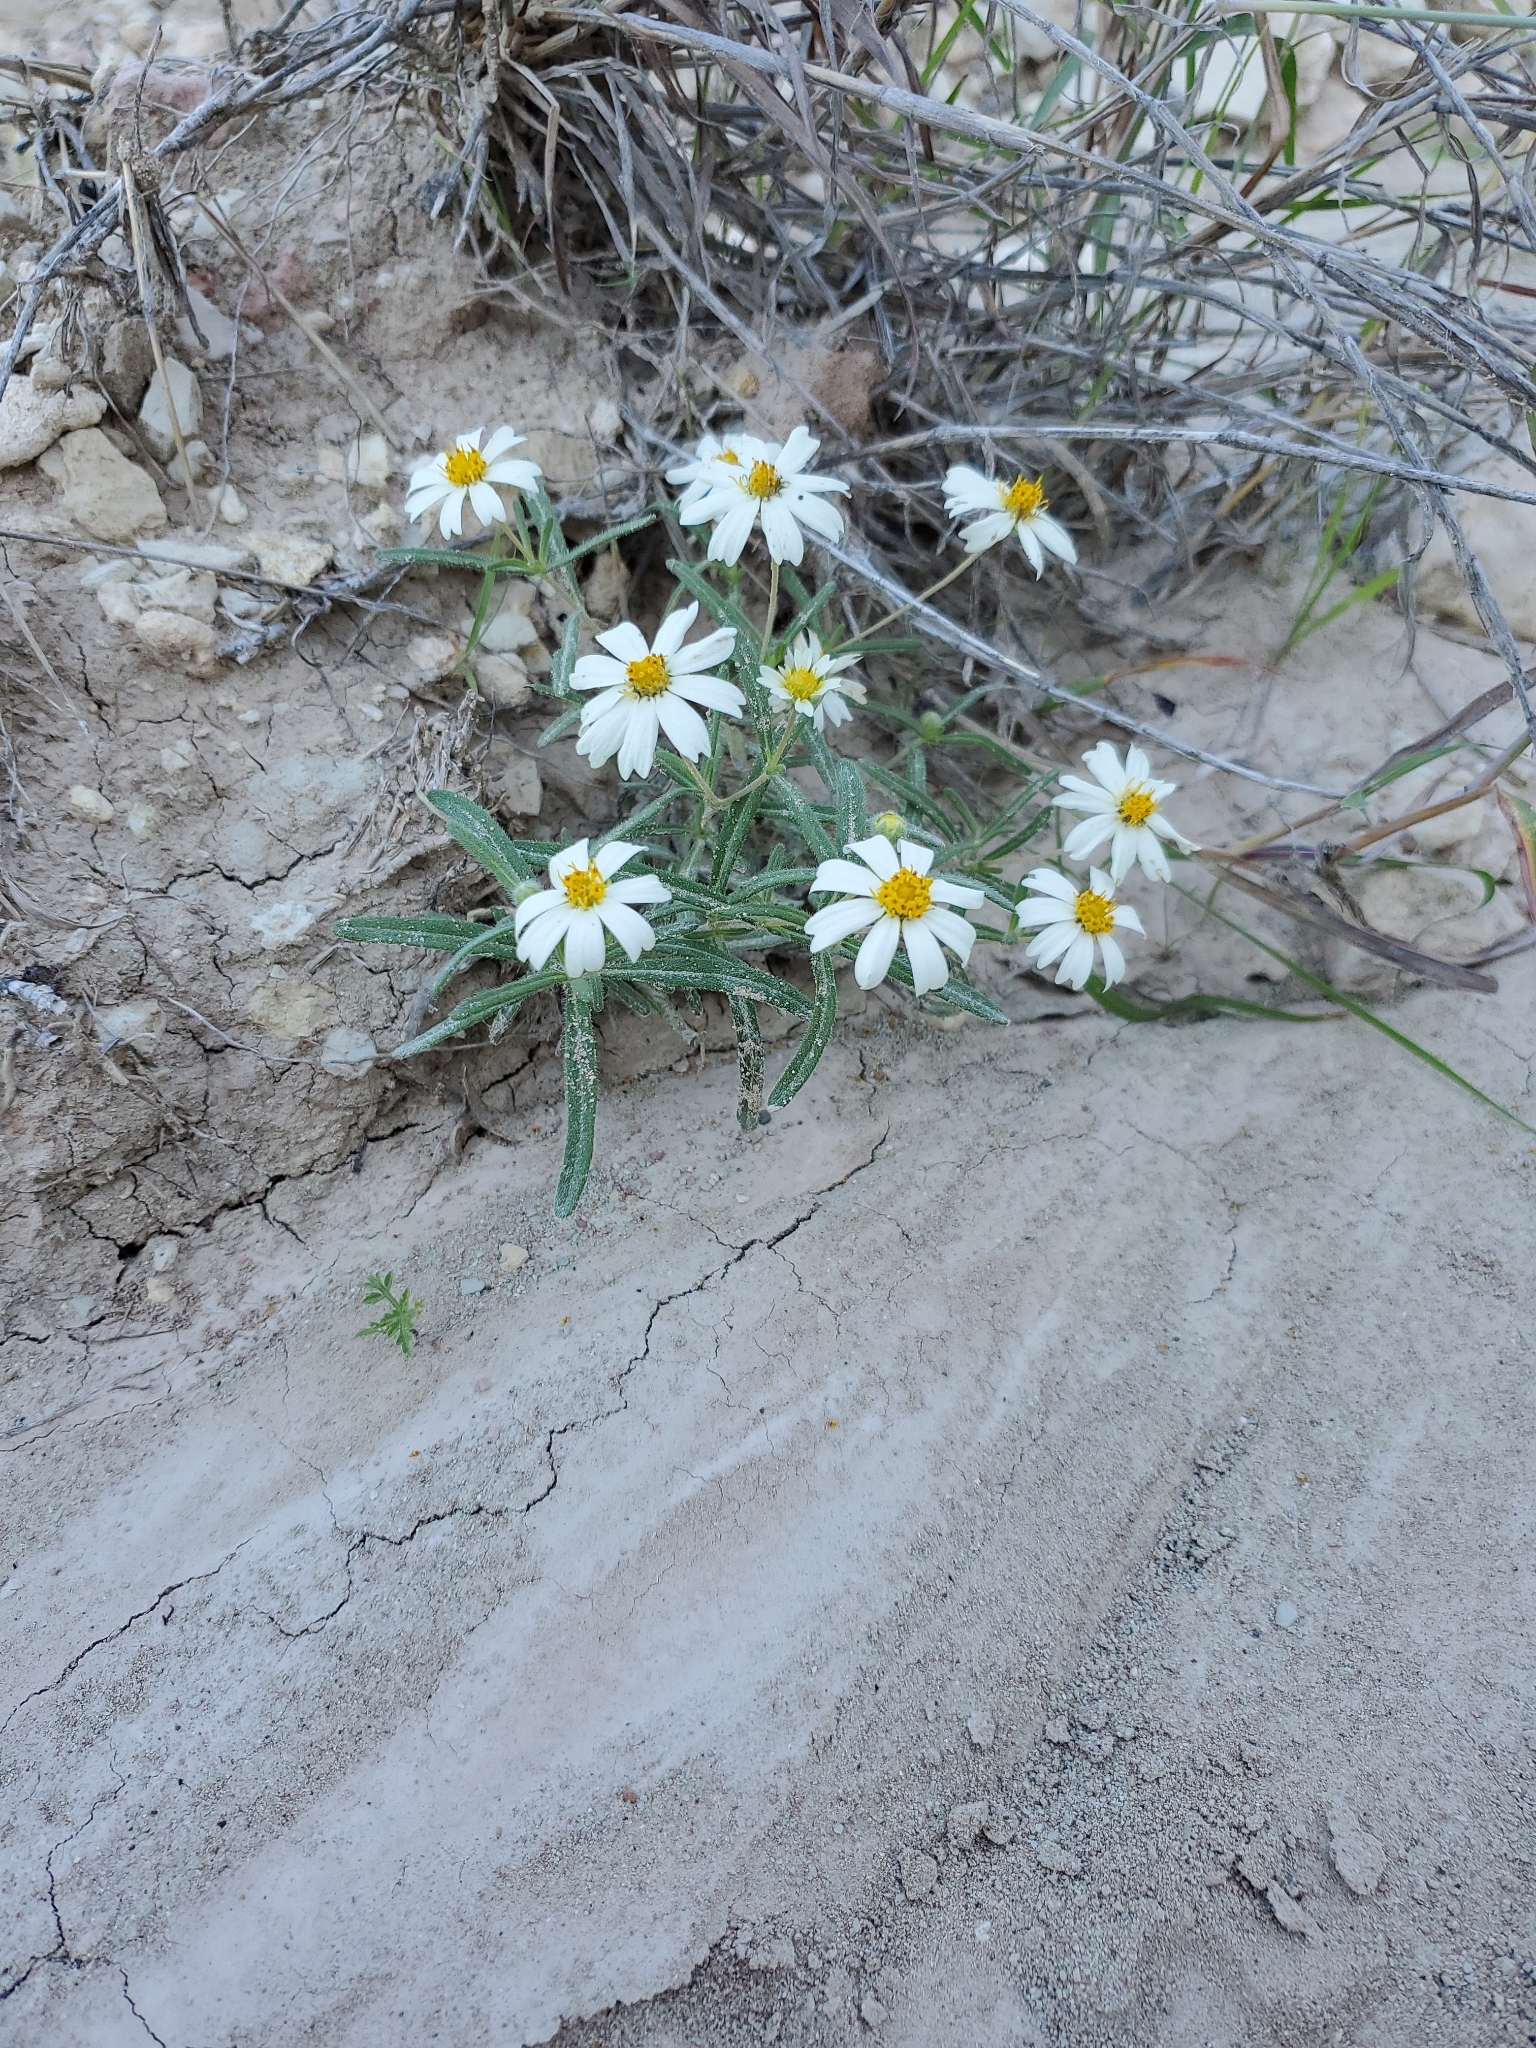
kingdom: Plantae
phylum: Tracheophyta
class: Magnoliopsida
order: Asterales
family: Asteraceae
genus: Melampodium
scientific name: Melampodium leucanthum
